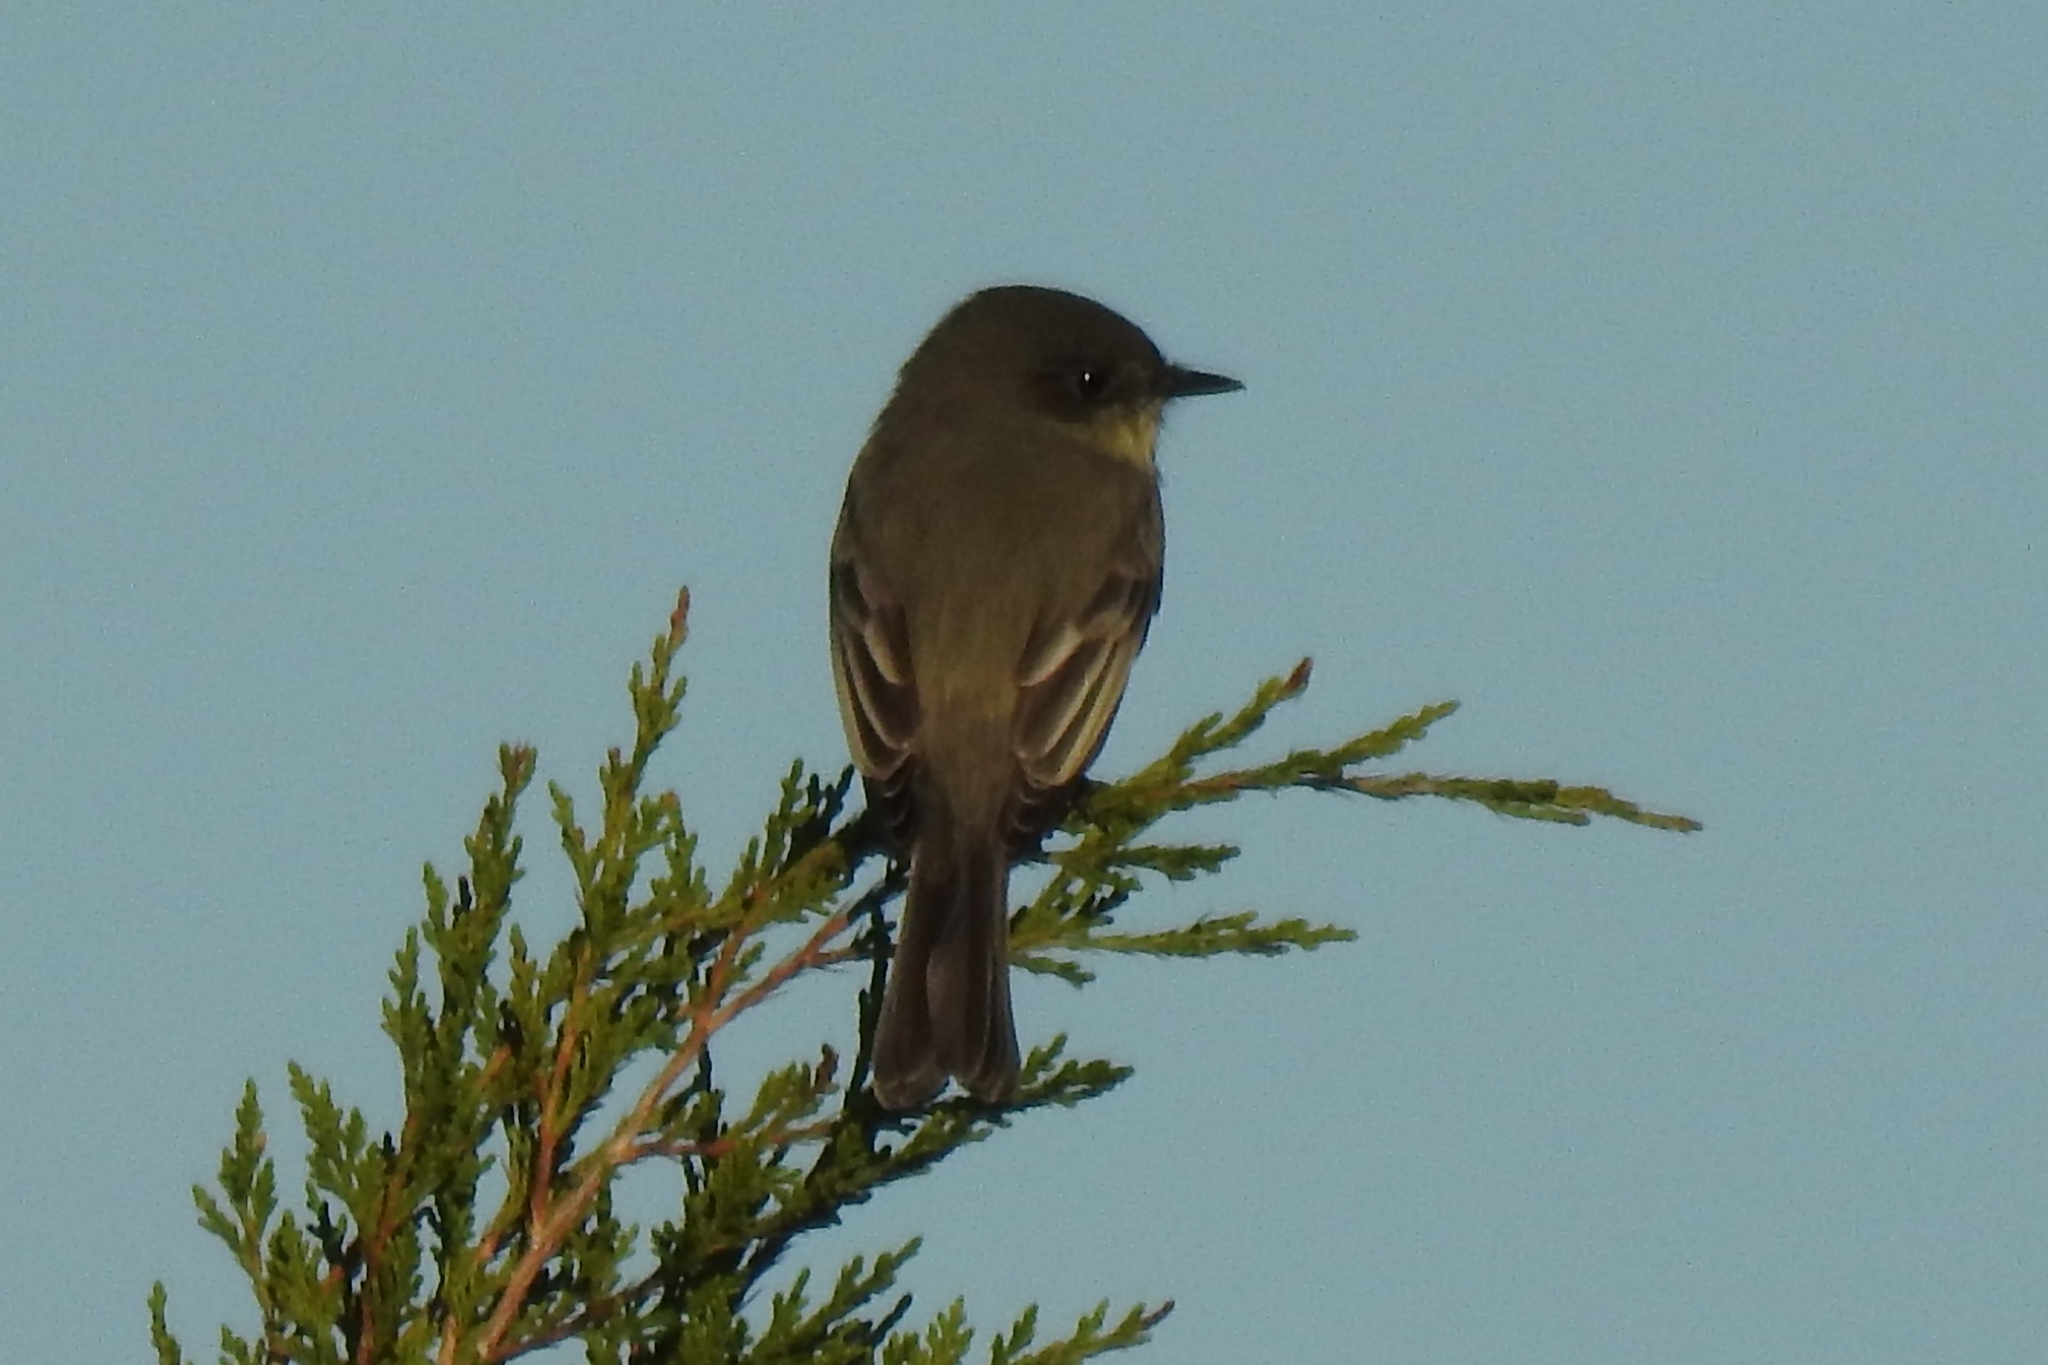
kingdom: Animalia
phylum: Chordata
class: Aves
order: Passeriformes
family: Tyrannidae
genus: Sayornis
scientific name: Sayornis phoebe
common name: Eastern phoebe
